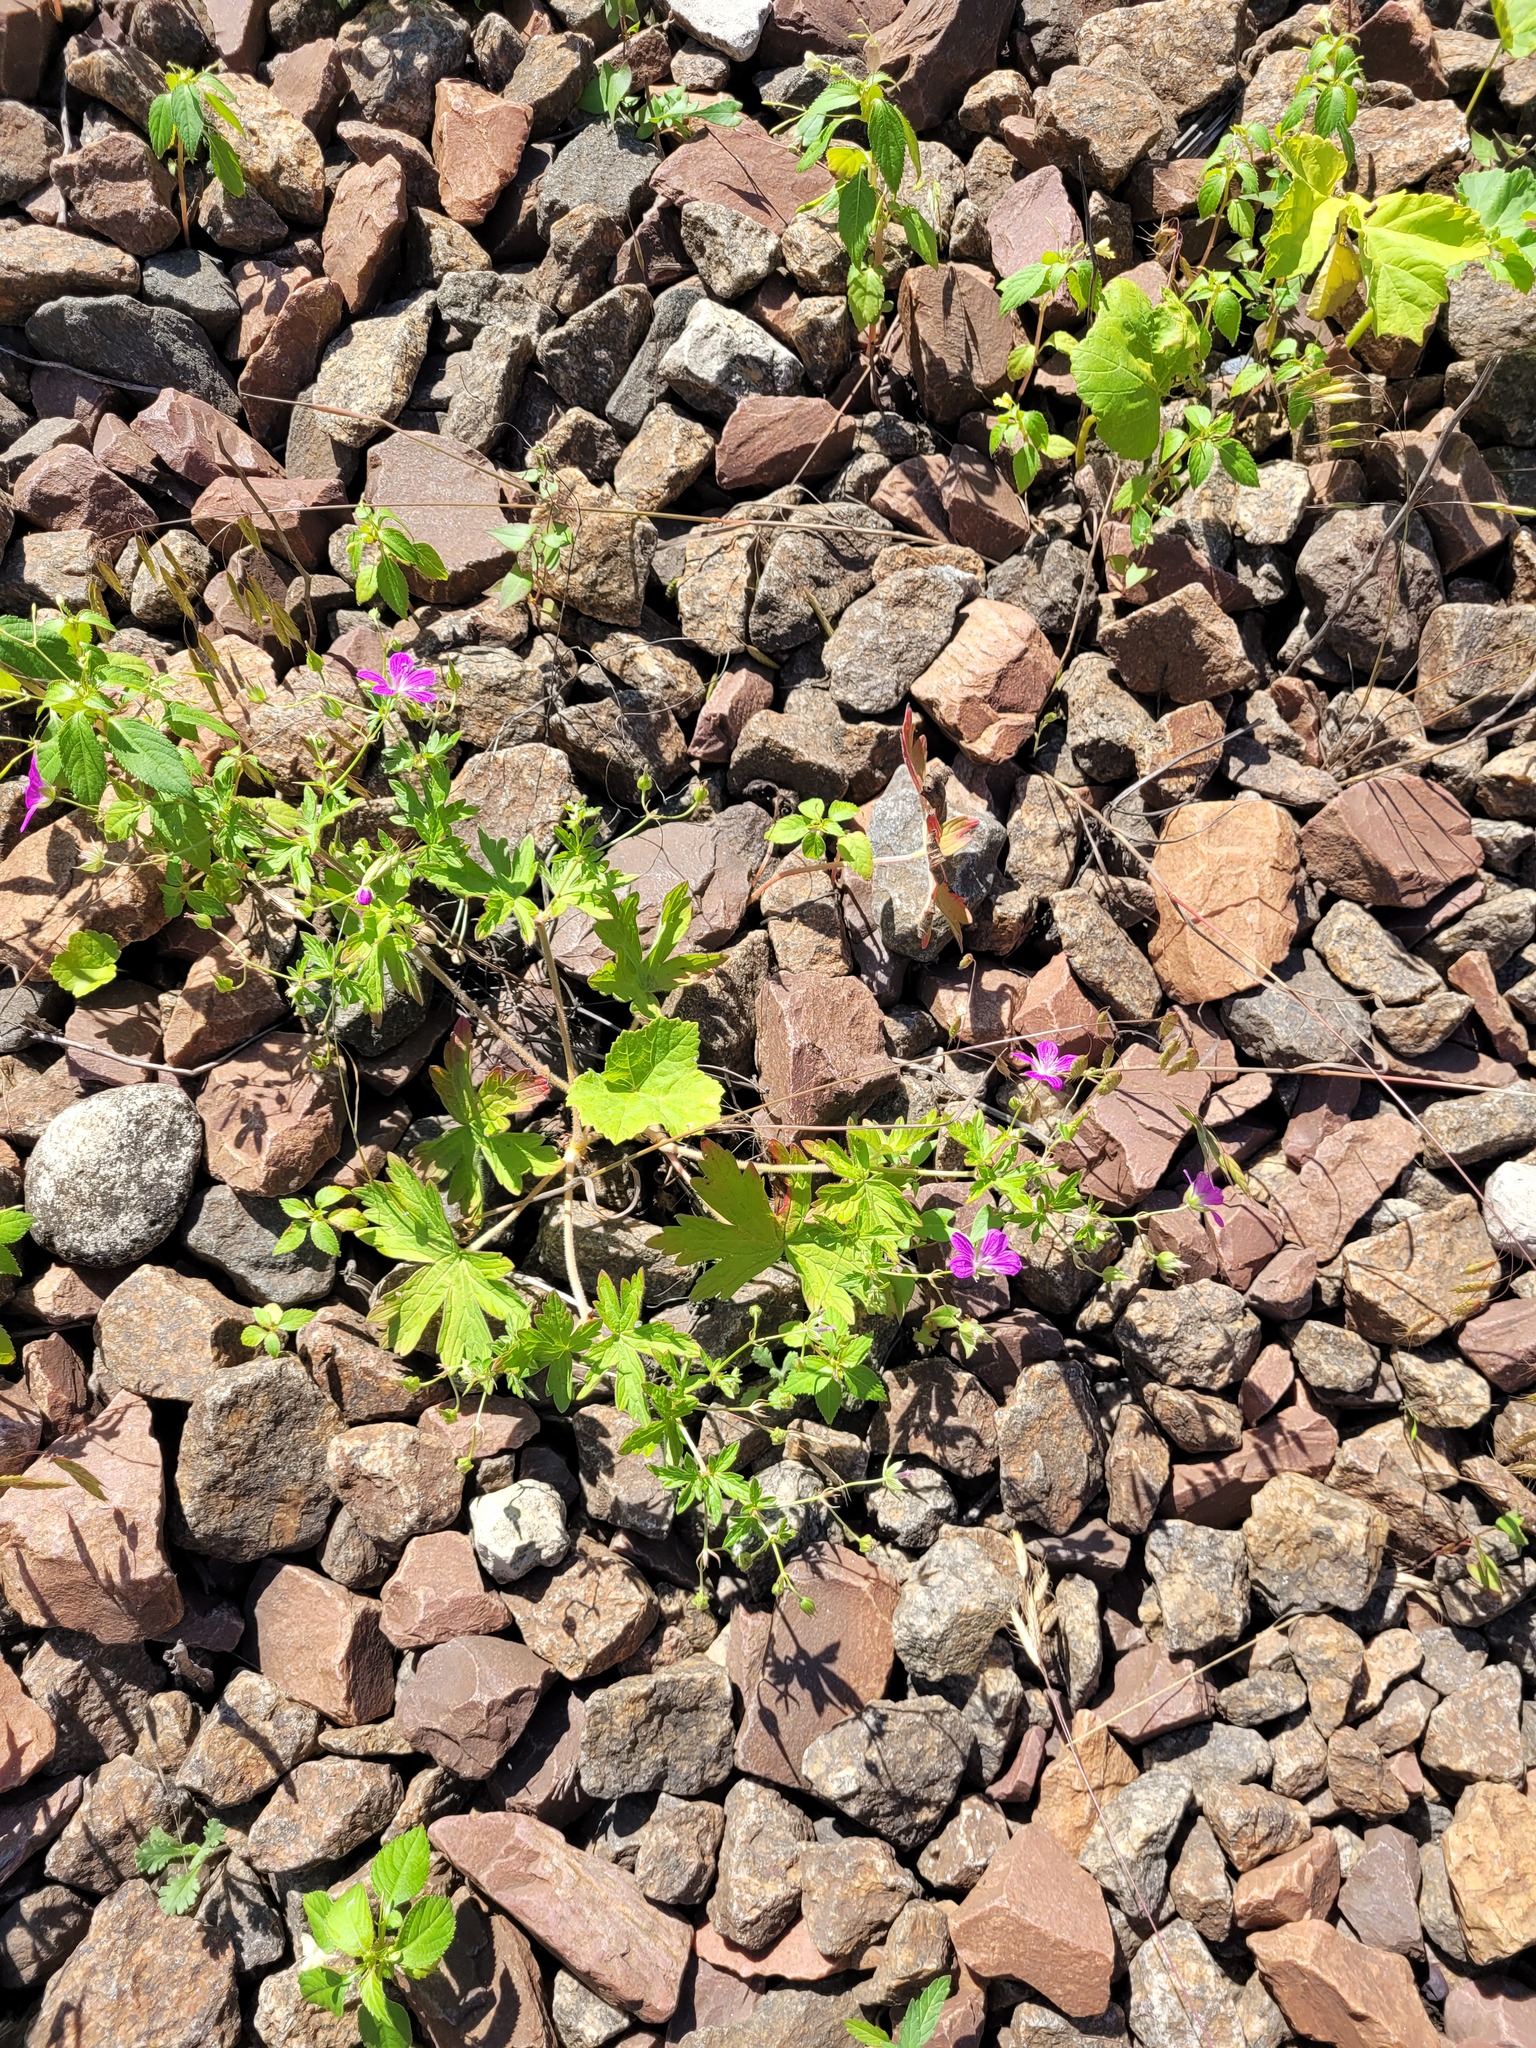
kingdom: Plantae
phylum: Tracheophyta
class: Magnoliopsida
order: Geraniales
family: Geraniaceae
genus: Geranium
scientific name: Geranium palustre
